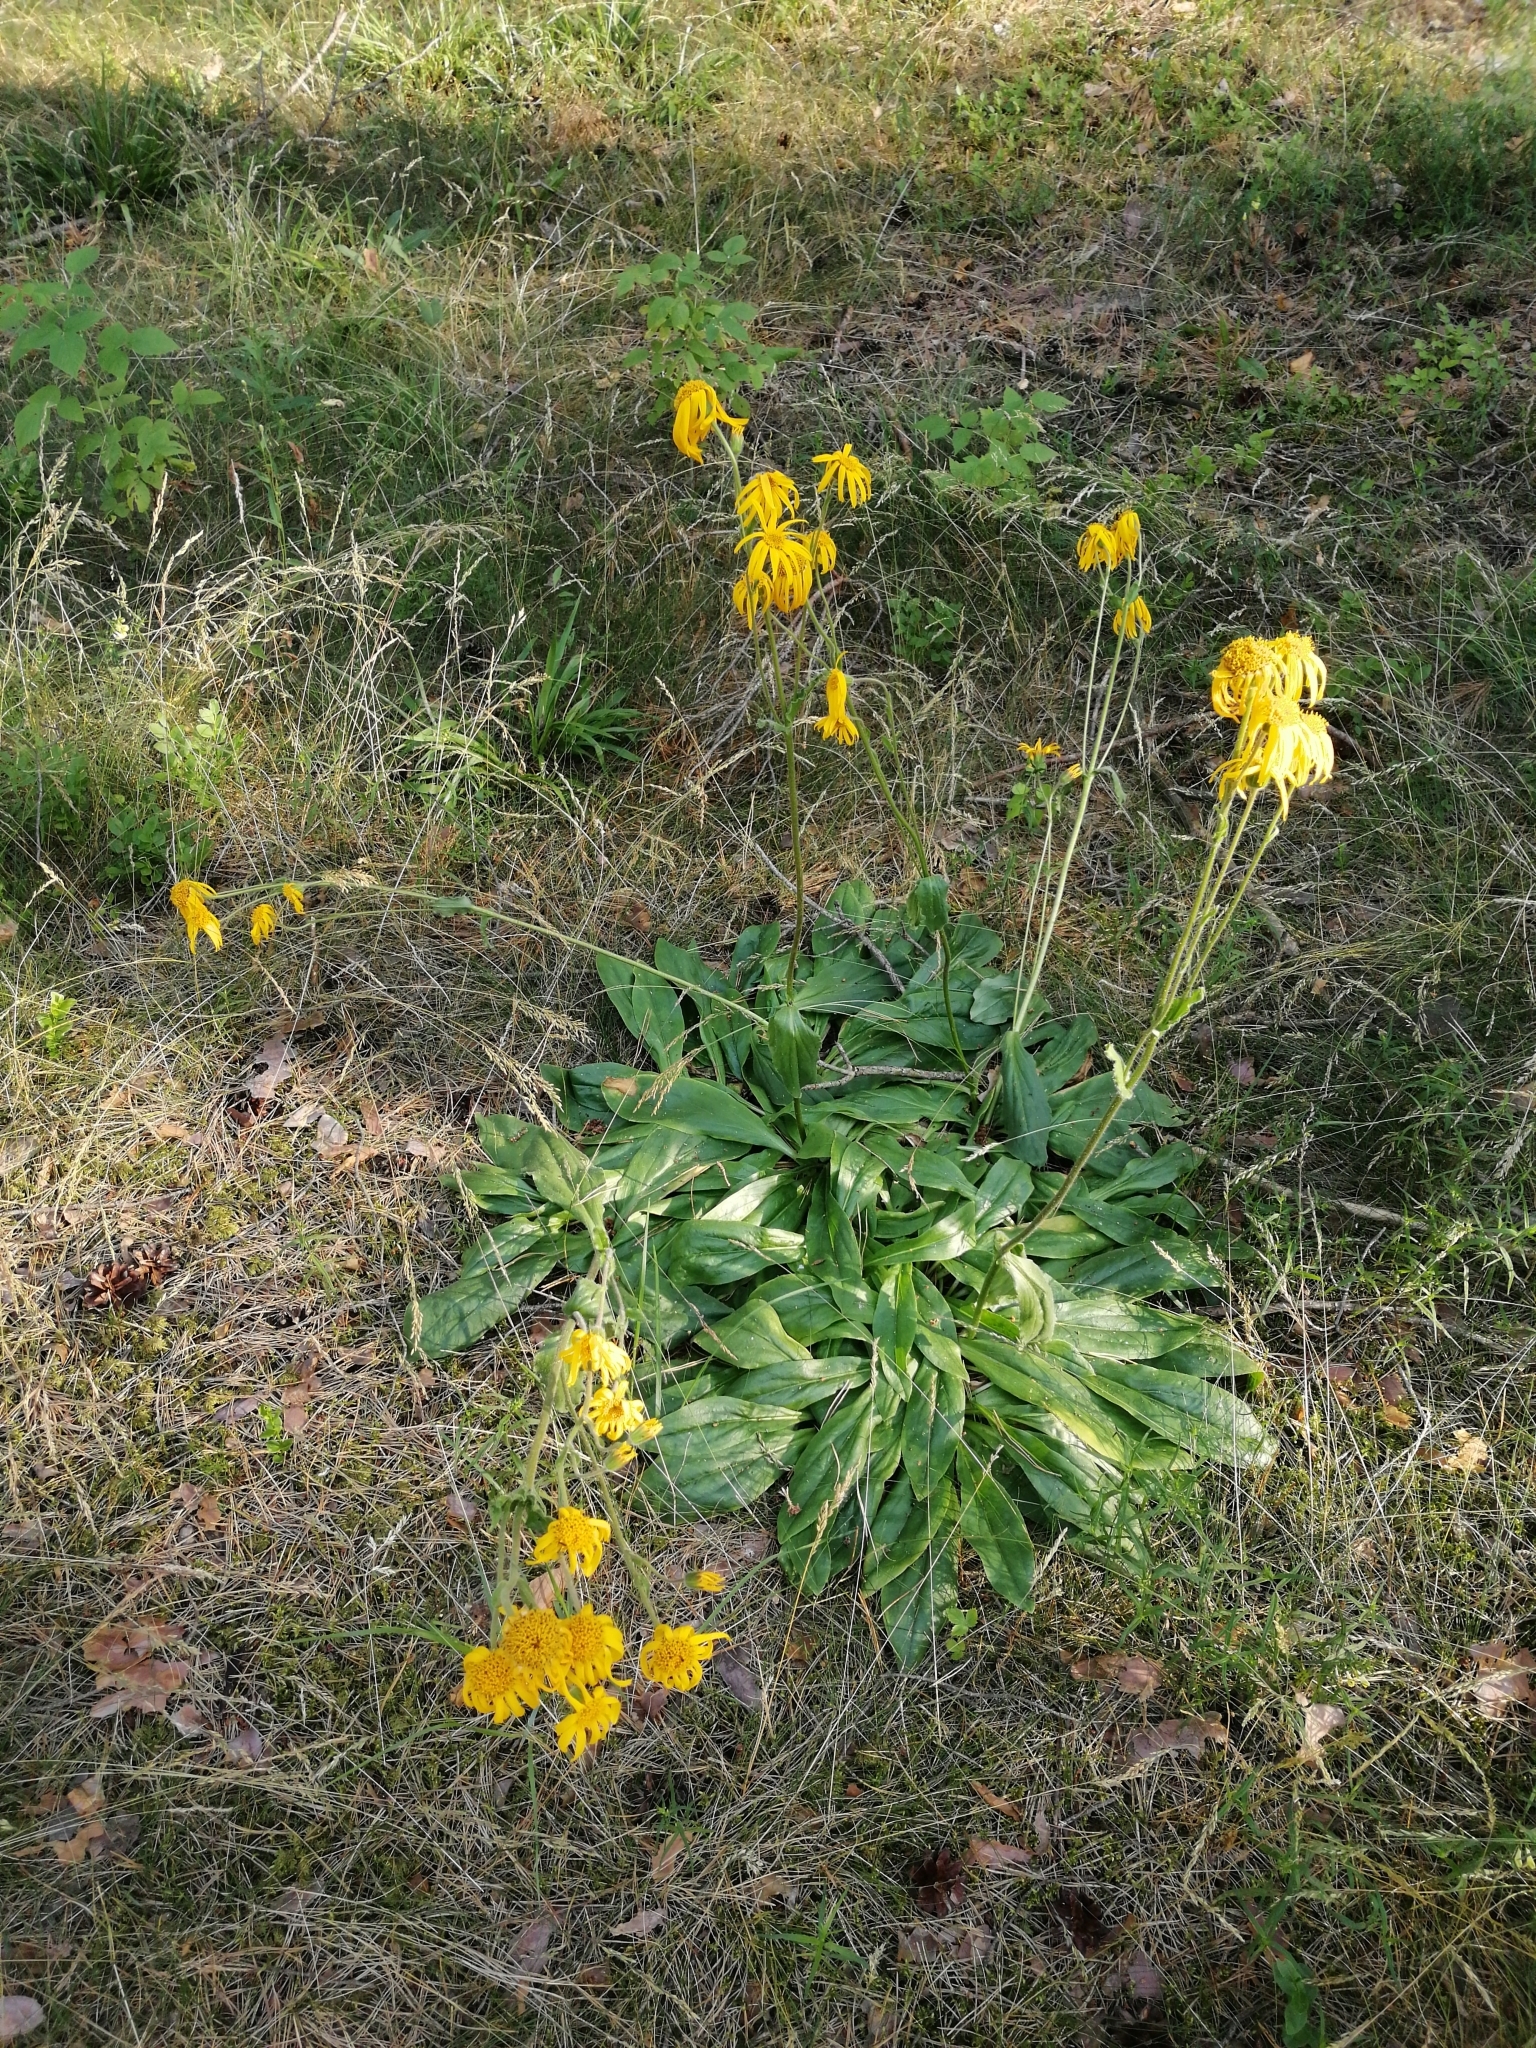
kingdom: Plantae
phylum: Tracheophyta
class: Magnoliopsida
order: Asterales
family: Asteraceae
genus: Arnica
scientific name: Arnica montana
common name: Leopard's bane
